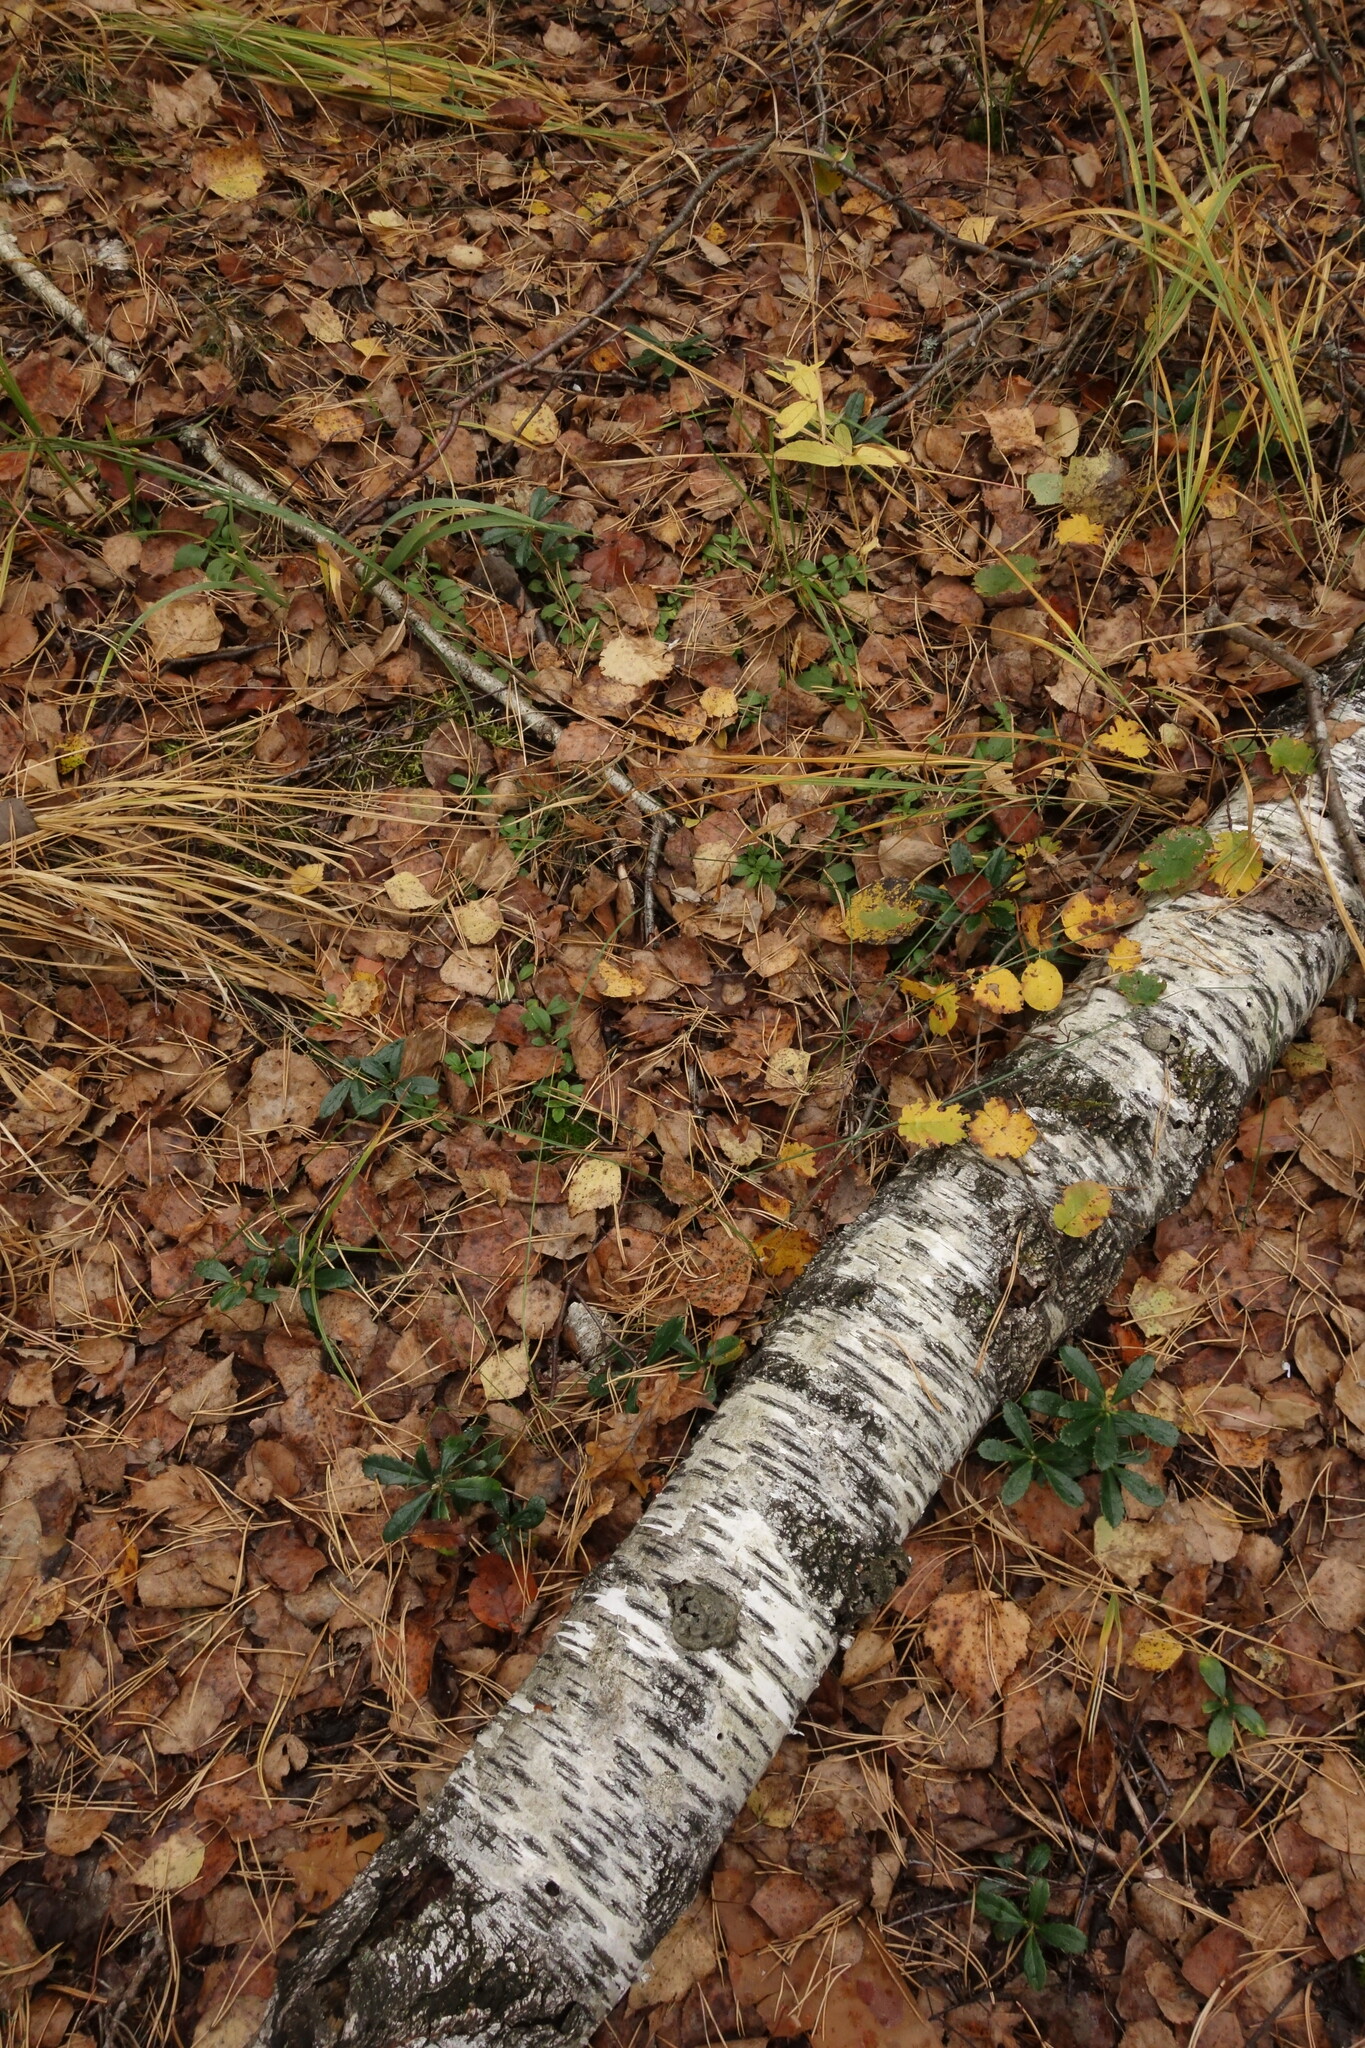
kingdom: Plantae
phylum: Tracheophyta
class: Magnoliopsida
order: Ericales
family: Ericaceae
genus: Chimaphila
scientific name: Chimaphila umbellata
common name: Pipsissewa
